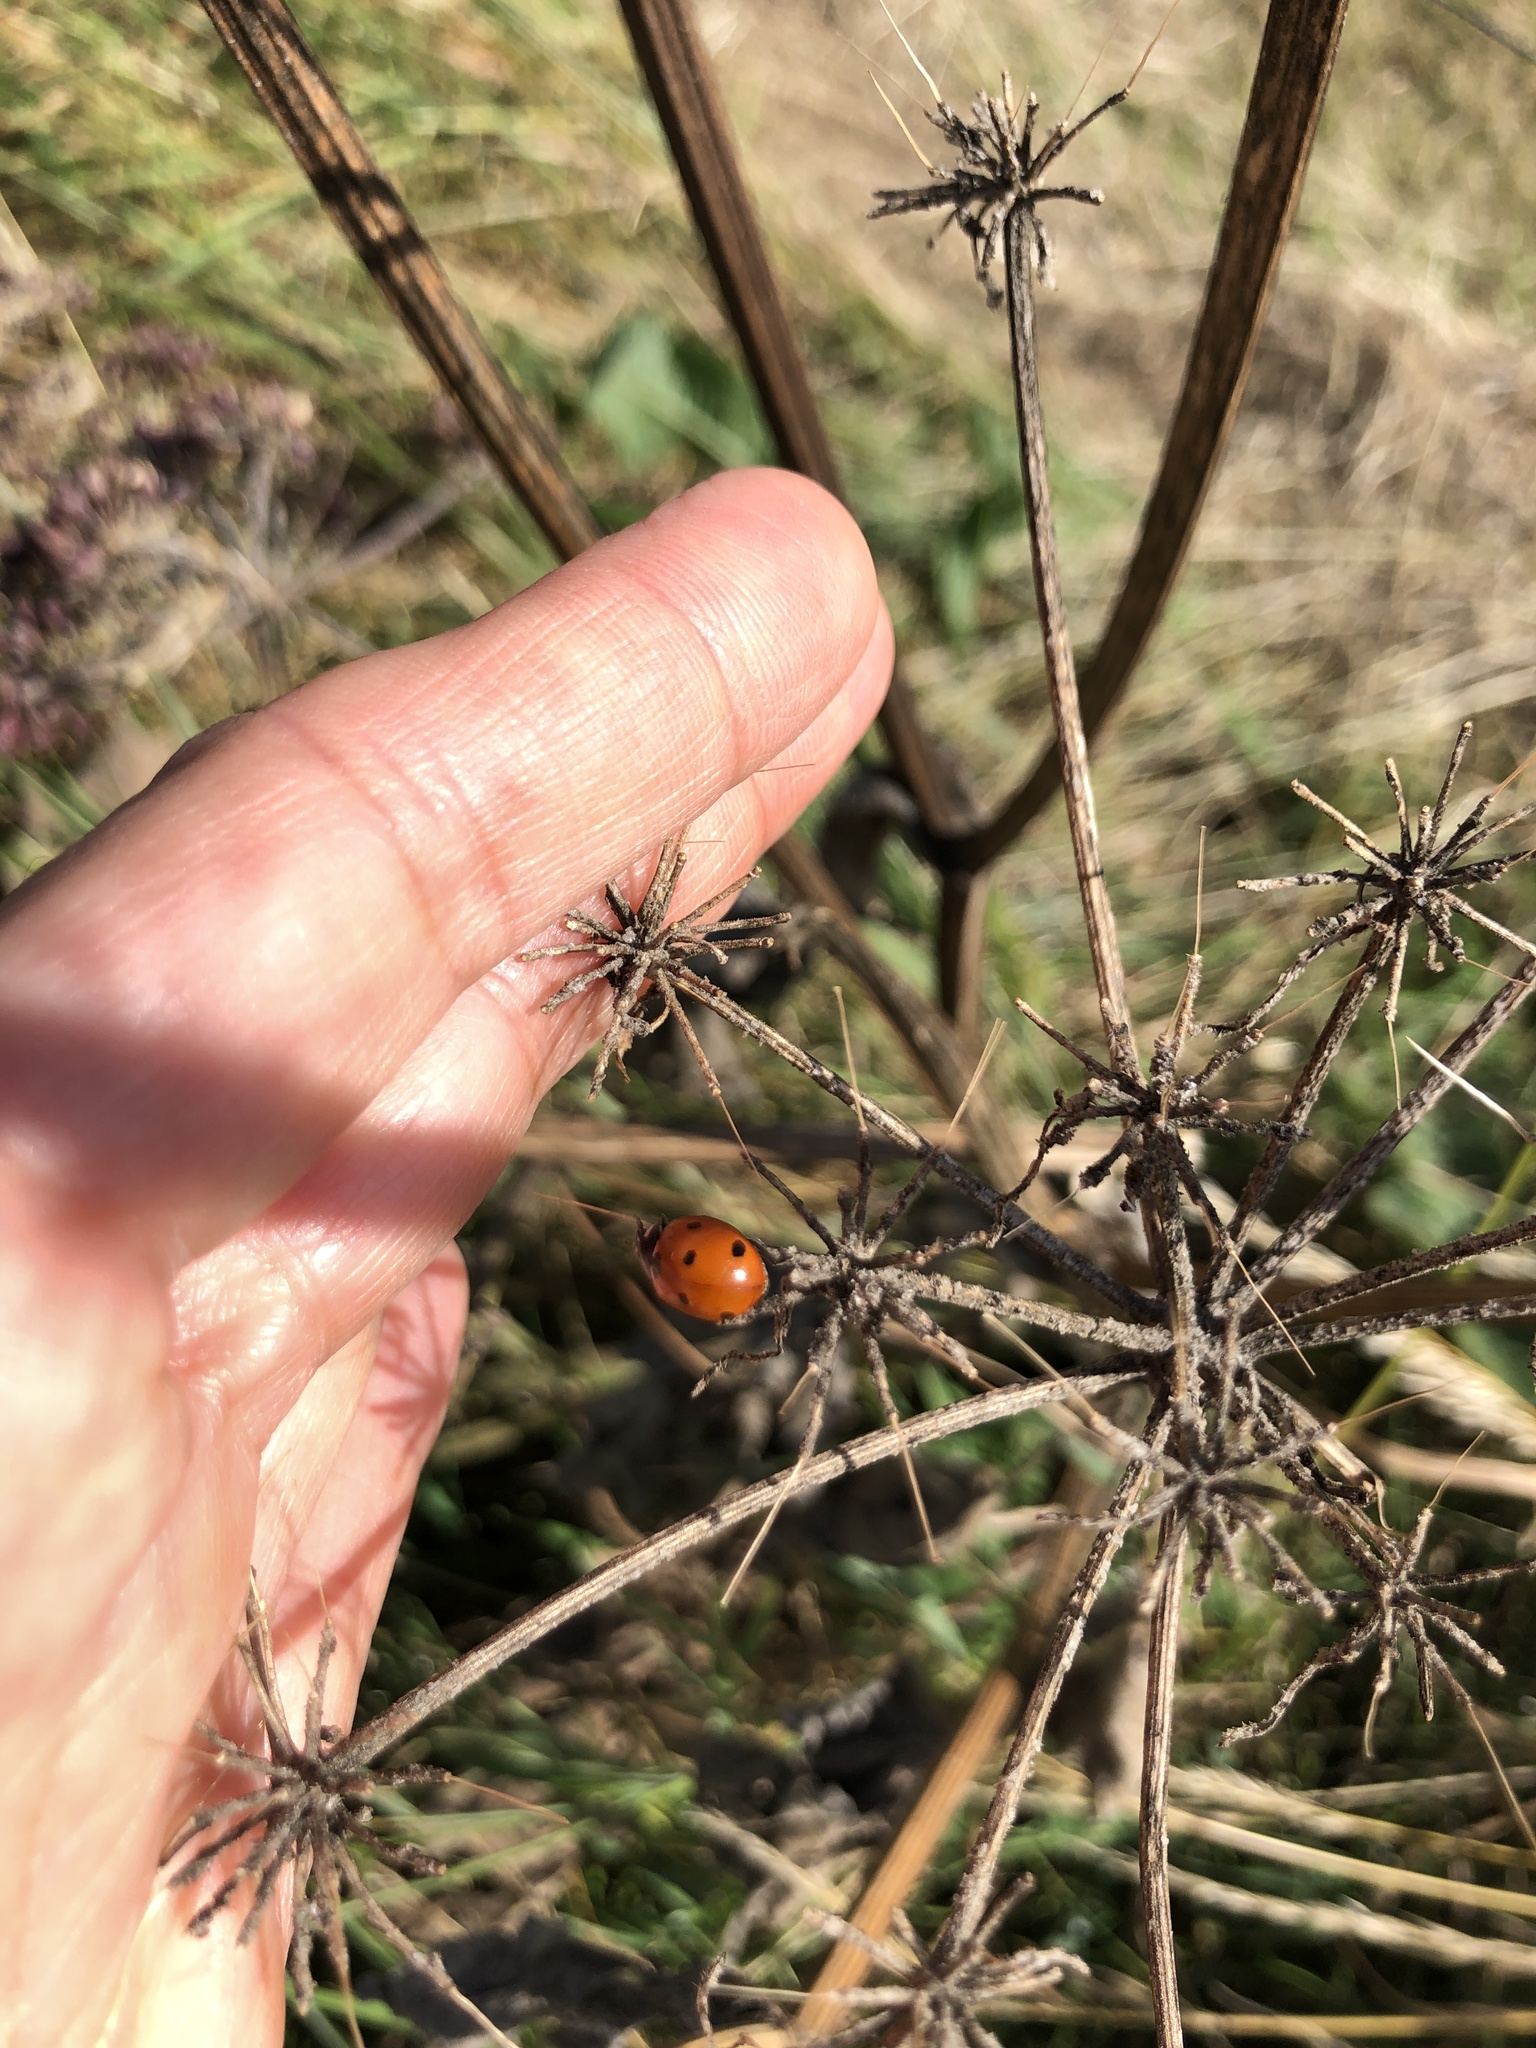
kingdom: Animalia
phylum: Arthropoda
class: Insecta
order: Coleoptera
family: Coccinellidae
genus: Coccinella
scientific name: Coccinella septempunctata
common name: Sevenspotted lady beetle
